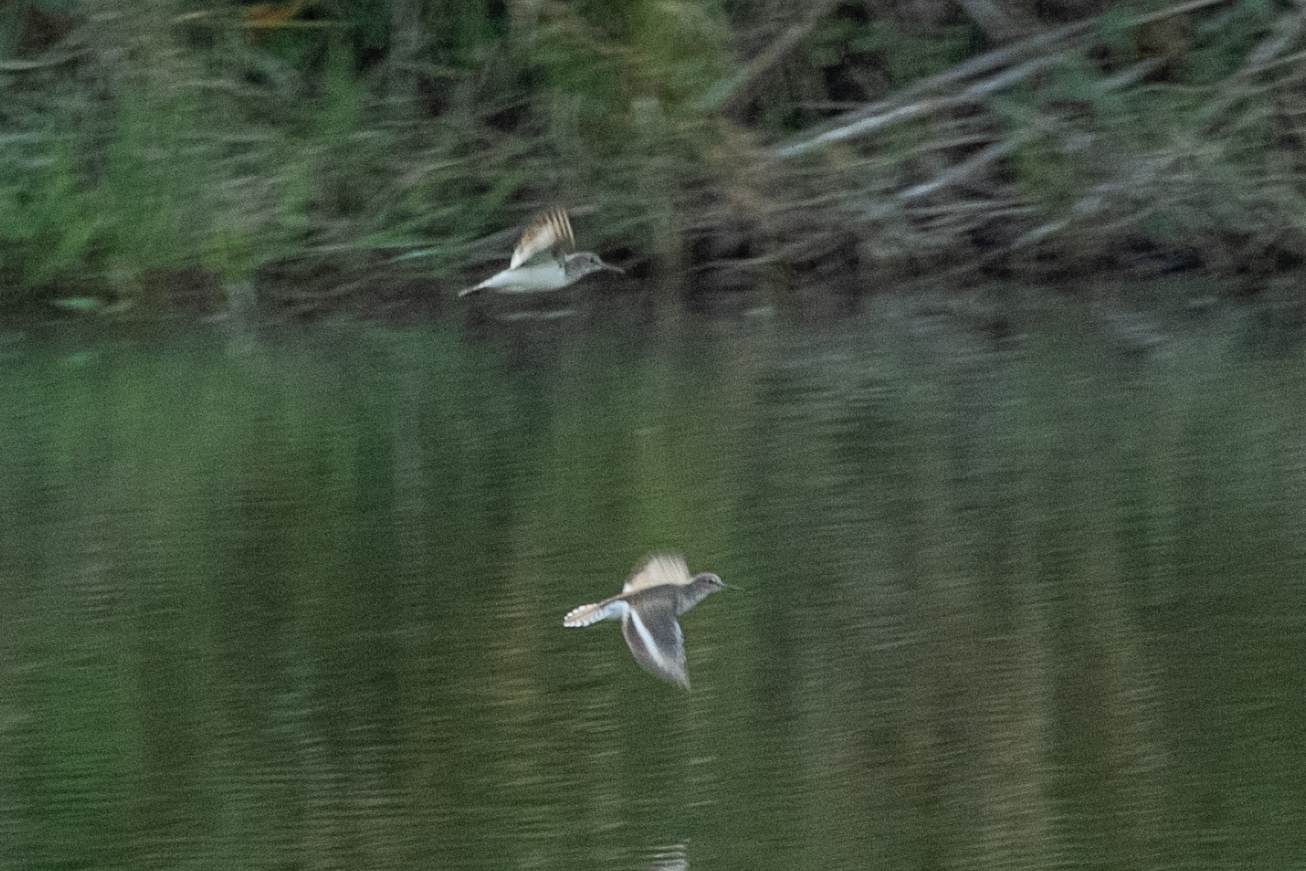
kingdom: Animalia
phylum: Chordata
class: Aves
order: Charadriiformes
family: Scolopacidae
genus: Actitis
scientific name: Actitis hypoleucos
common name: Common sandpiper
